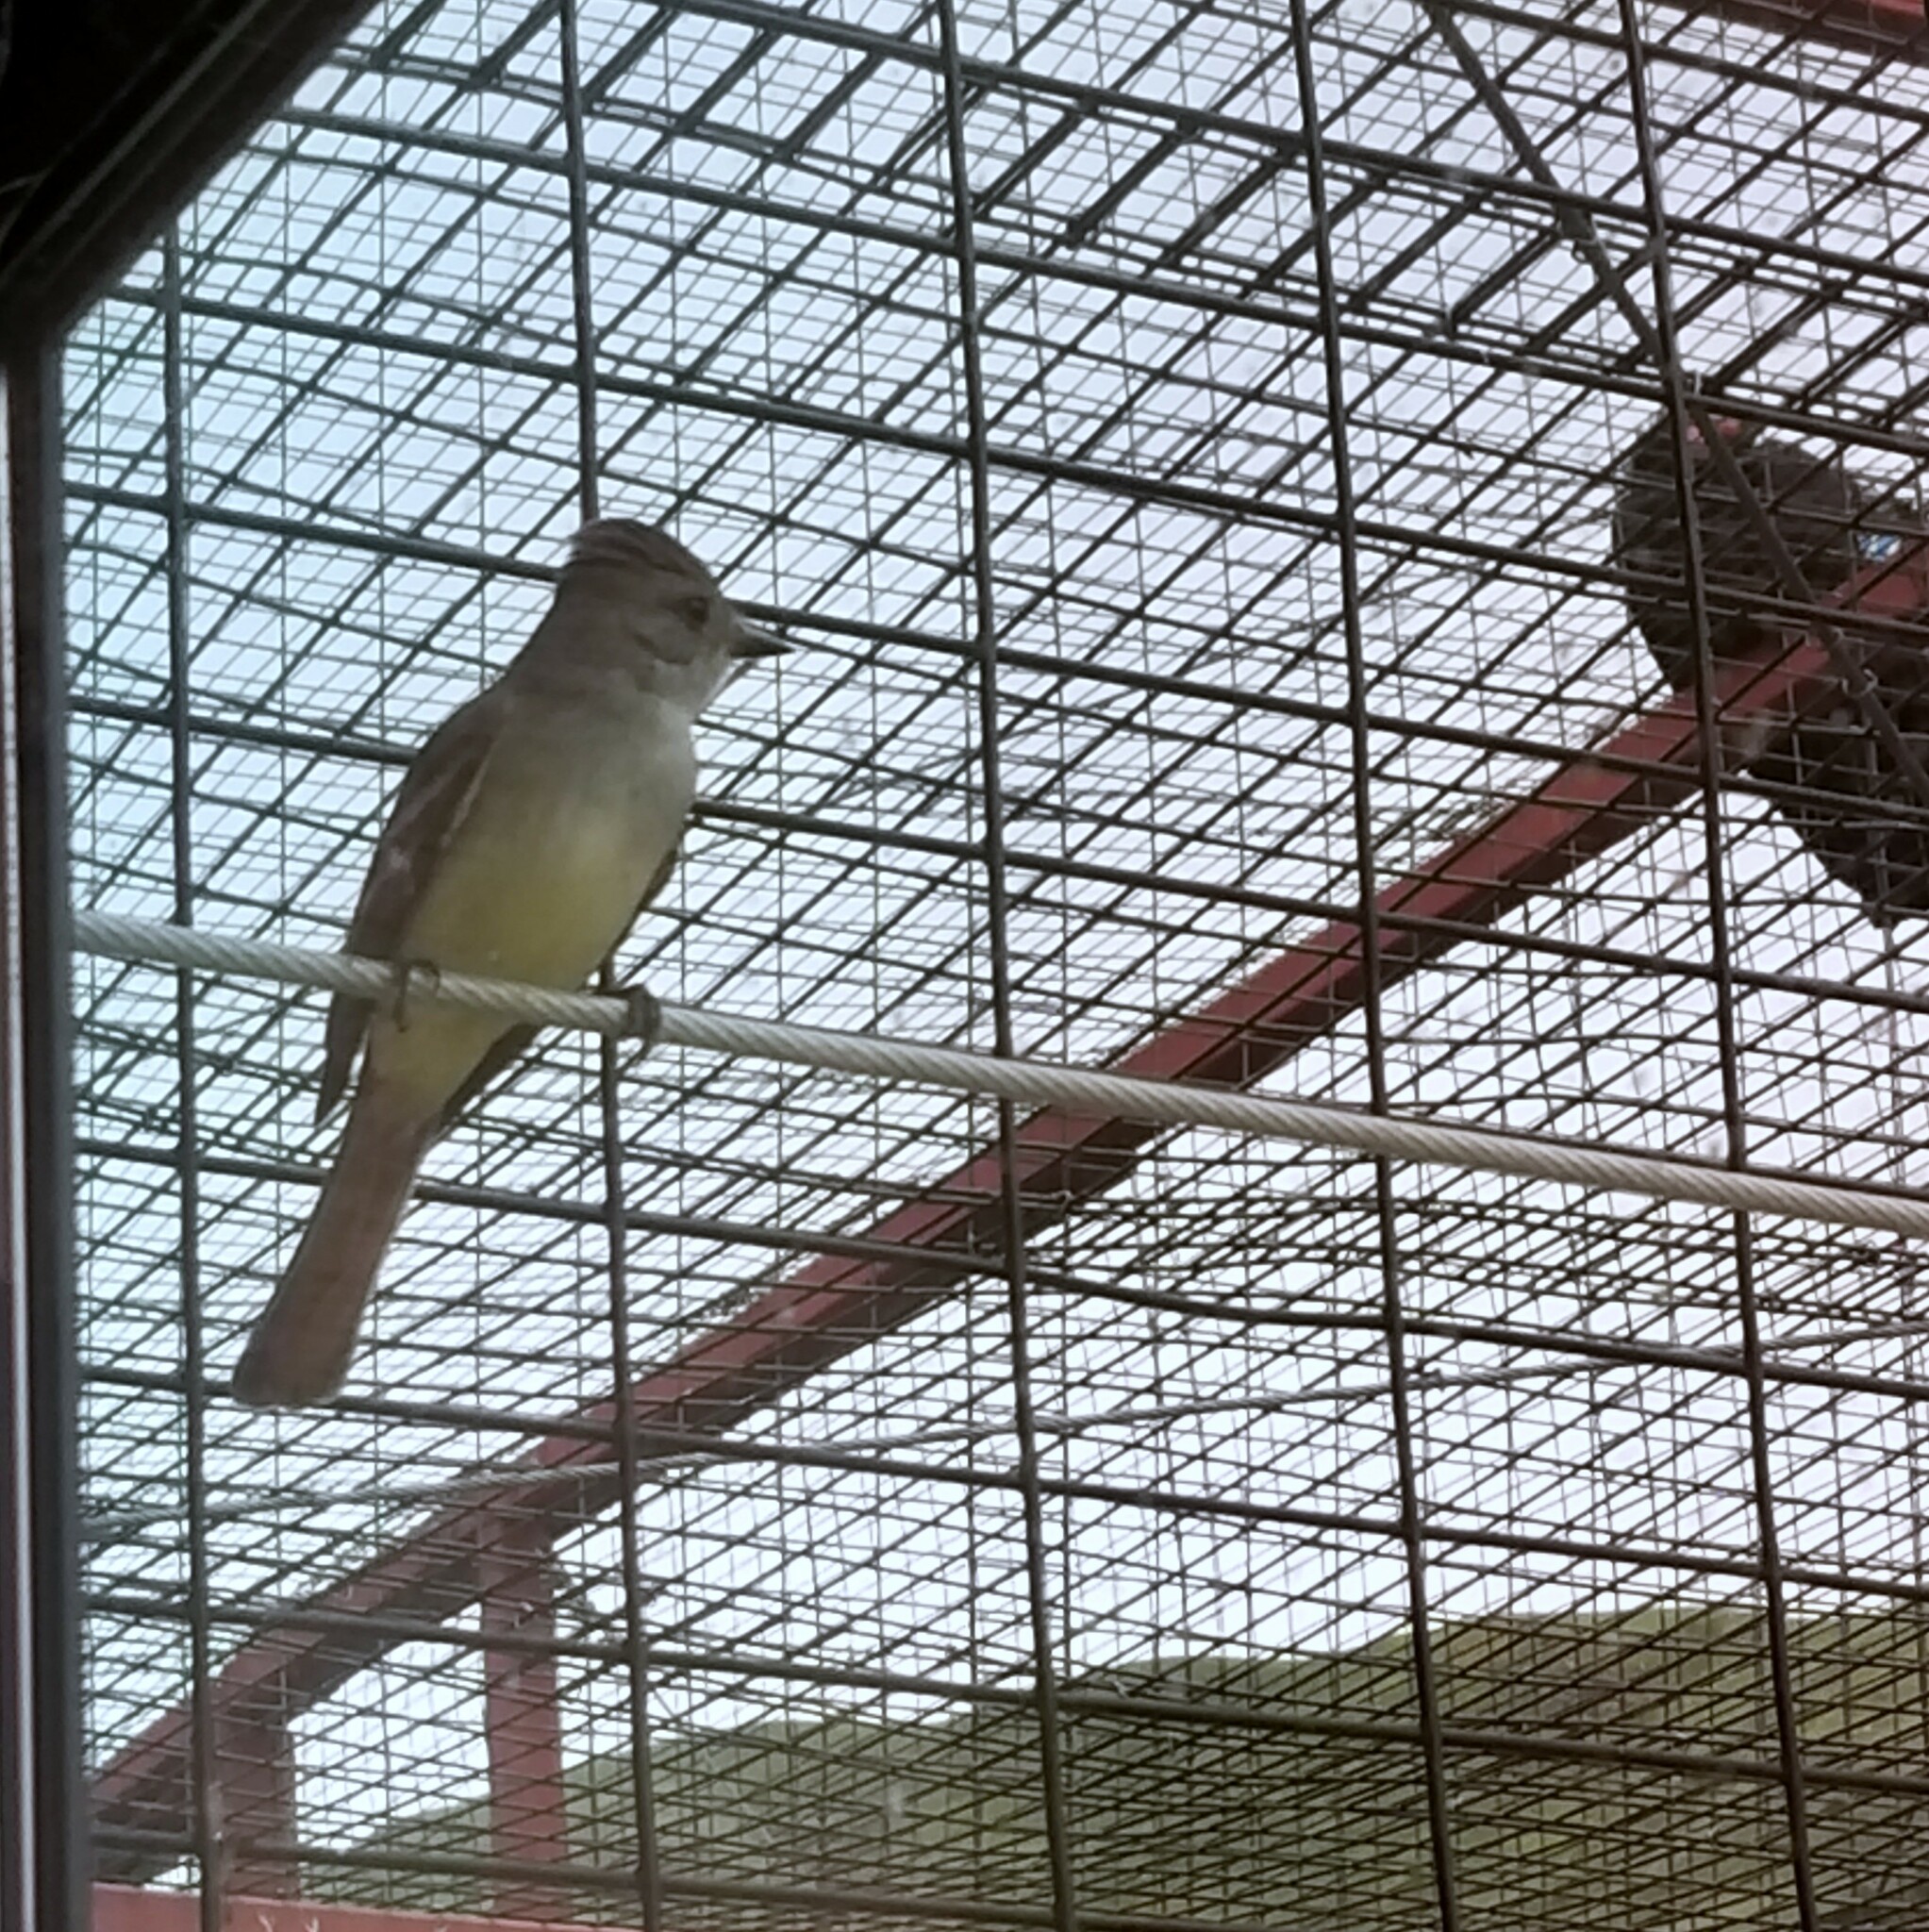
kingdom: Animalia
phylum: Chordata
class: Aves
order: Passeriformes
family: Tyrannidae
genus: Myiarchus
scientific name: Myiarchus cinerascens
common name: Ash-throated flycatcher
